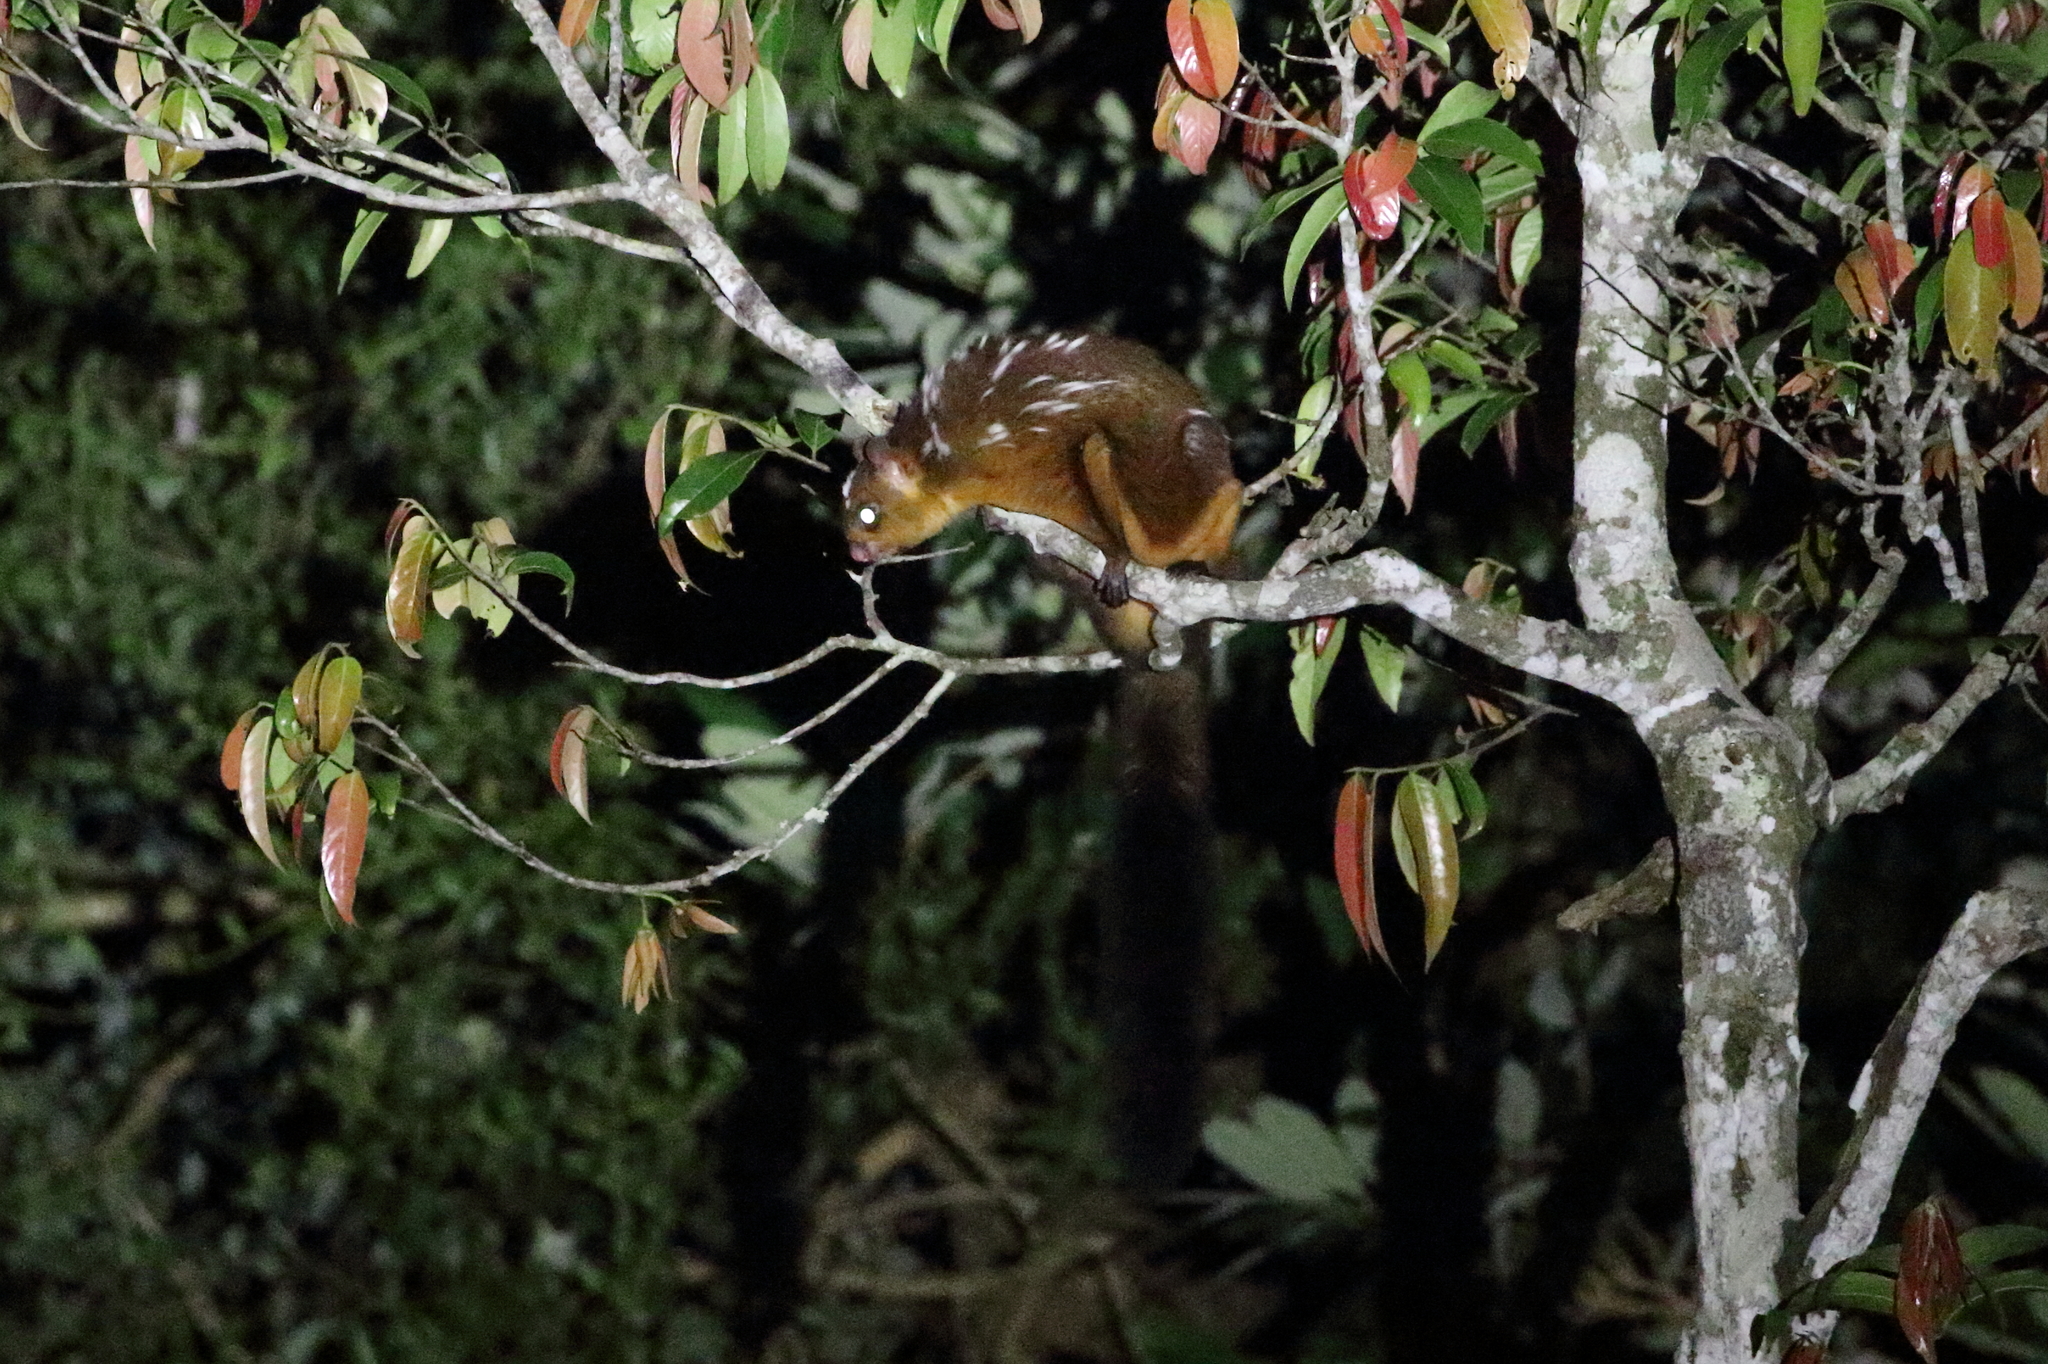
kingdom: Animalia
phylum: Chordata
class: Mammalia
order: Rodentia
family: Sciuridae
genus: Petaurista
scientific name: Petaurista
